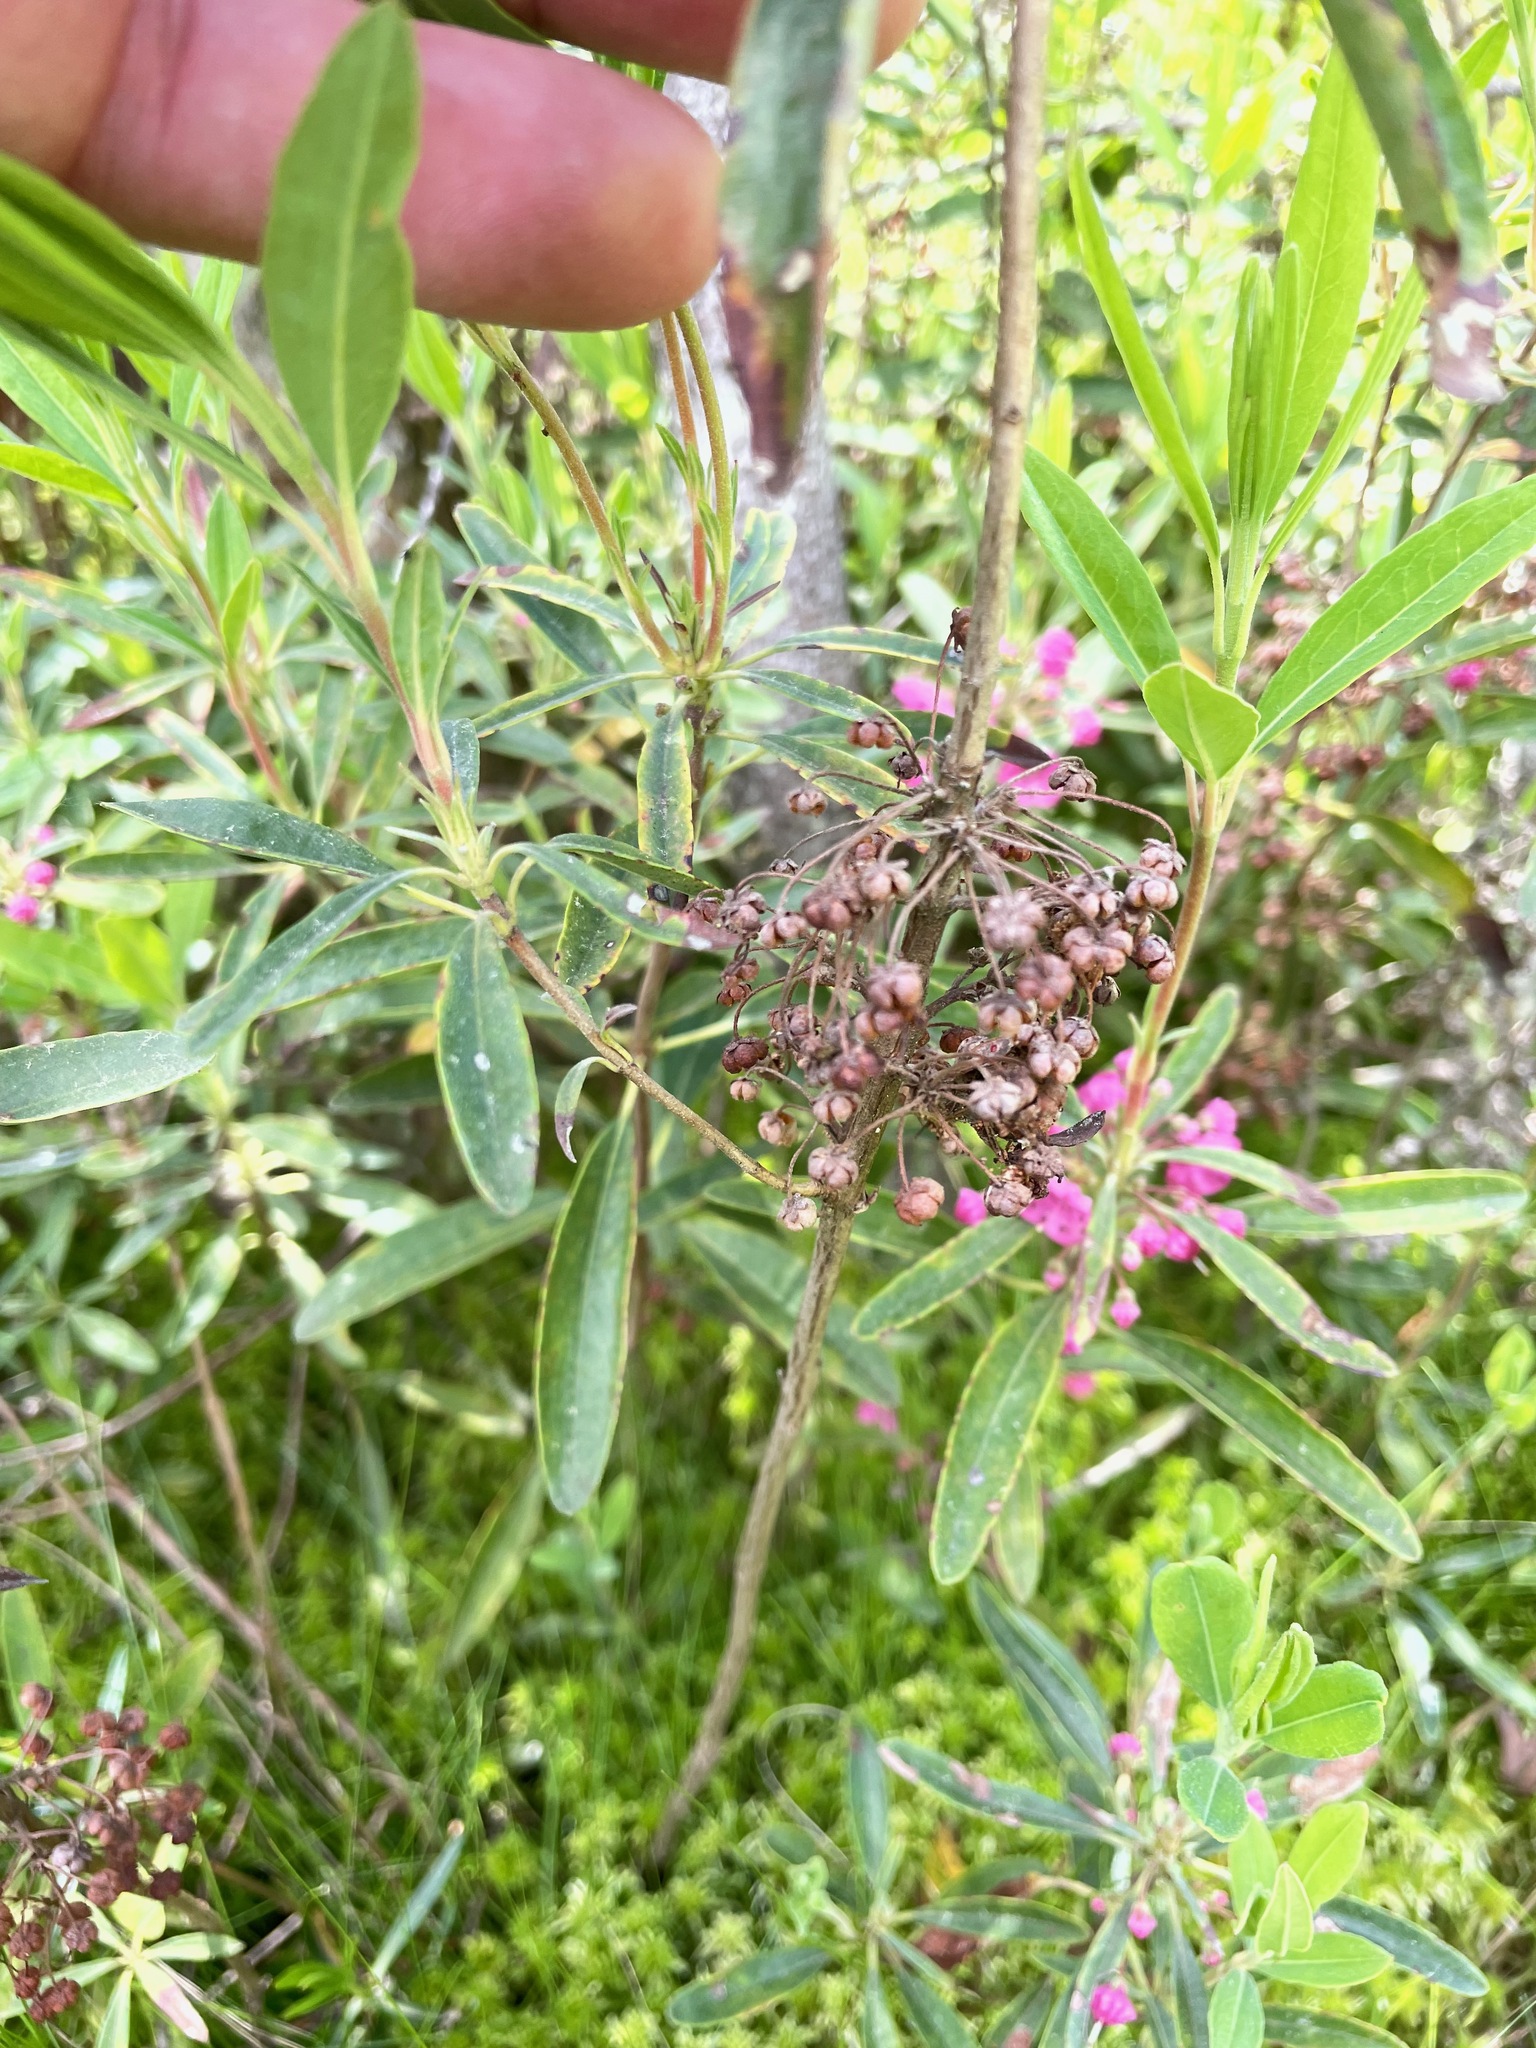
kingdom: Plantae
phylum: Tracheophyta
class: Magnoliopsida
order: Ericales
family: Ericaceae
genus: Kalmia
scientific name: Kalmia angustifolia
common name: Sheep-laurel
